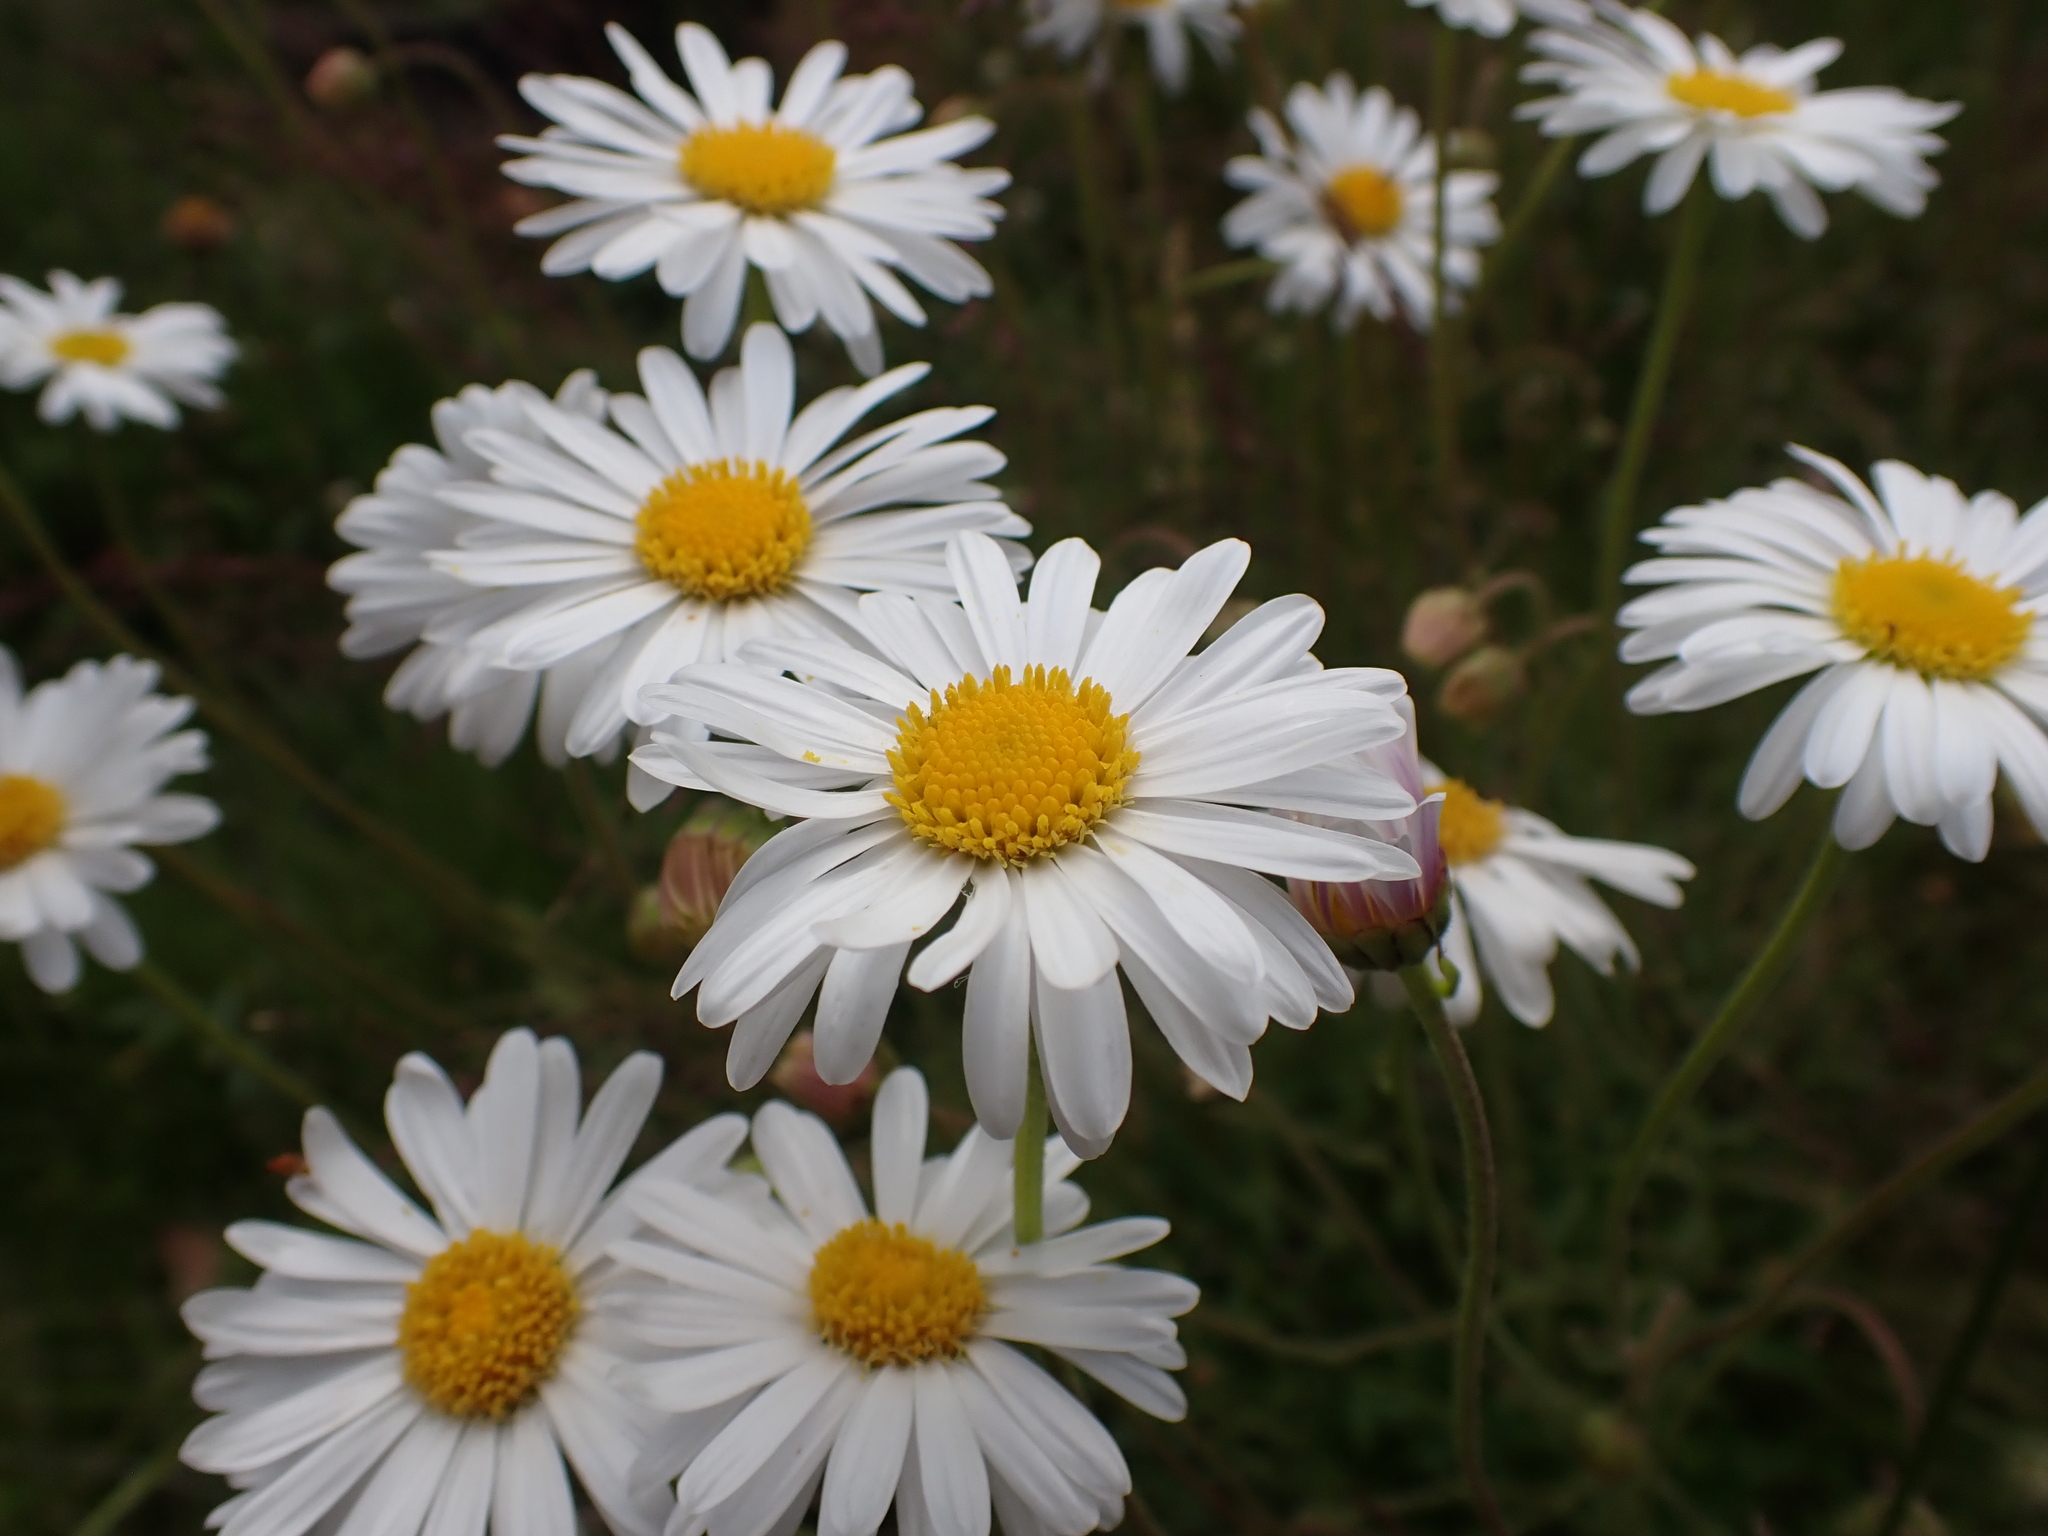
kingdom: Plantae
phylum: Tracheophyta
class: Magnoliopsida
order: Asterales
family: Asteraceae
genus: Brachyscome
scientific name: Brachyscome aculeata
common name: Hill daisy
